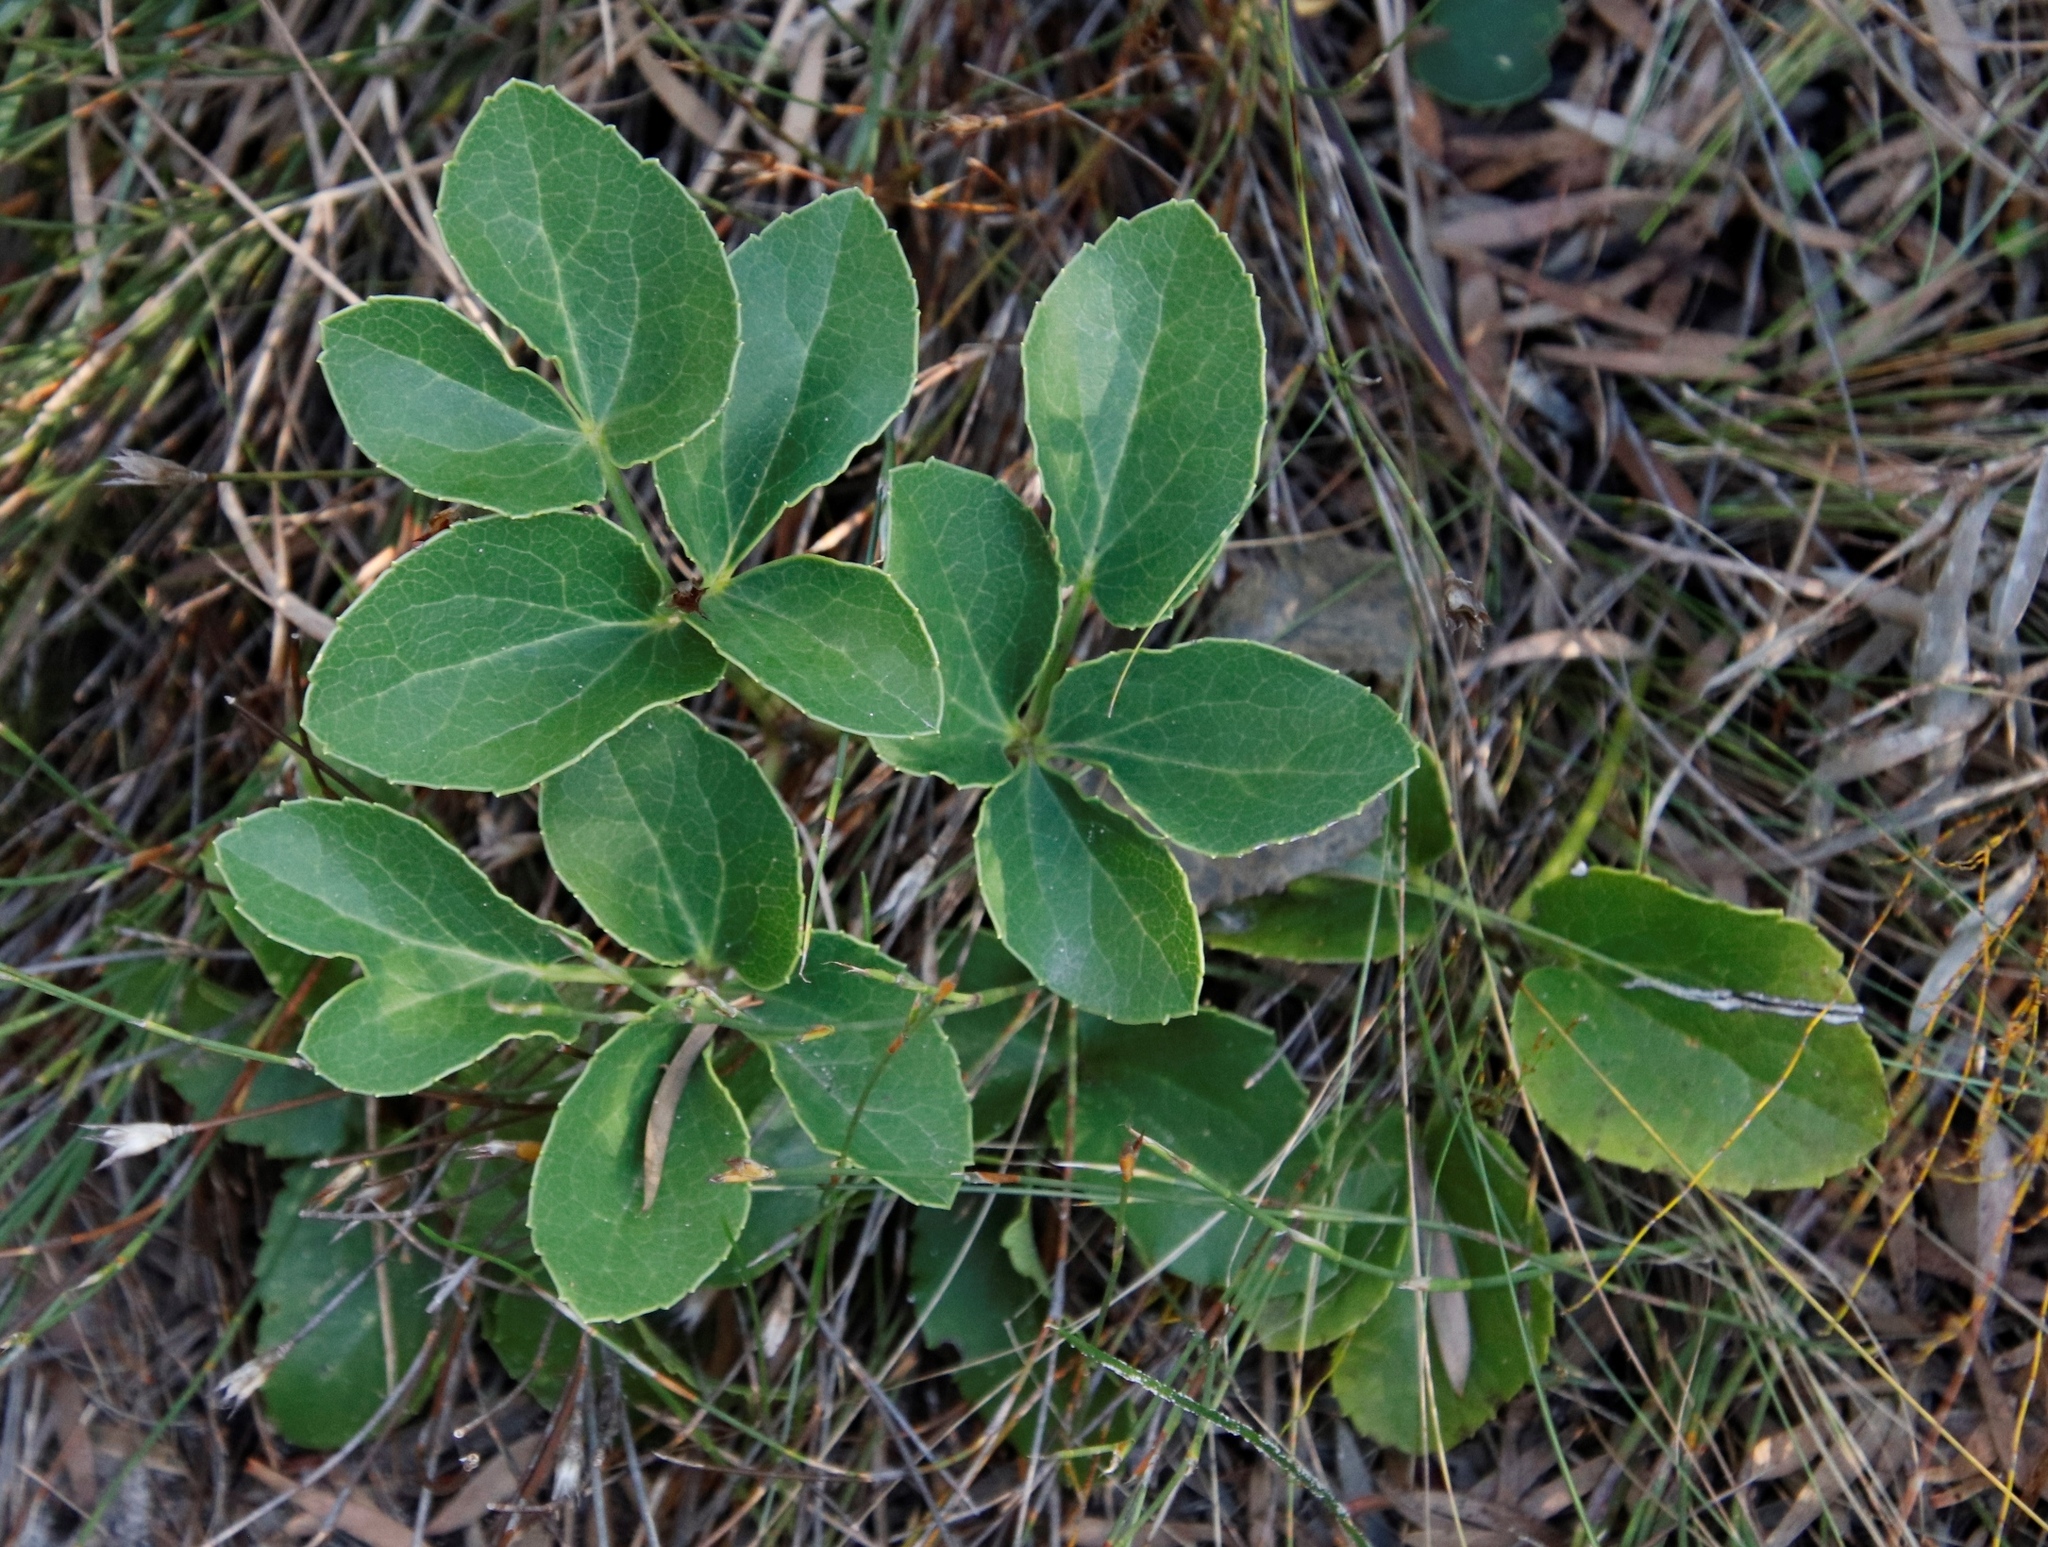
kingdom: Plantae
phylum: Tracheophyta
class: Magnoliopsida
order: Ranunculales
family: Ranunculaceae
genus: Knowltonia
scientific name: Knowltonia vesicatoria
